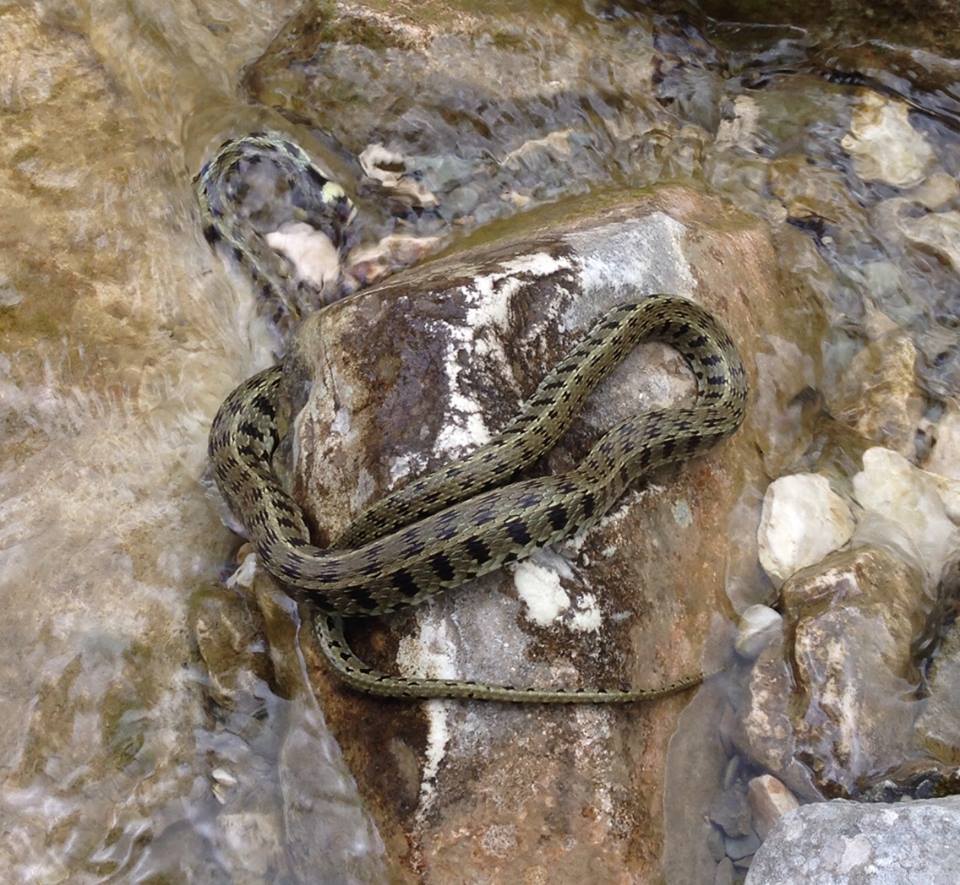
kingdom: Animalia
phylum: Chordata
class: Squamata
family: Colubridae
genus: Natrix
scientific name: Natrix natrix
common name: Grass snake
